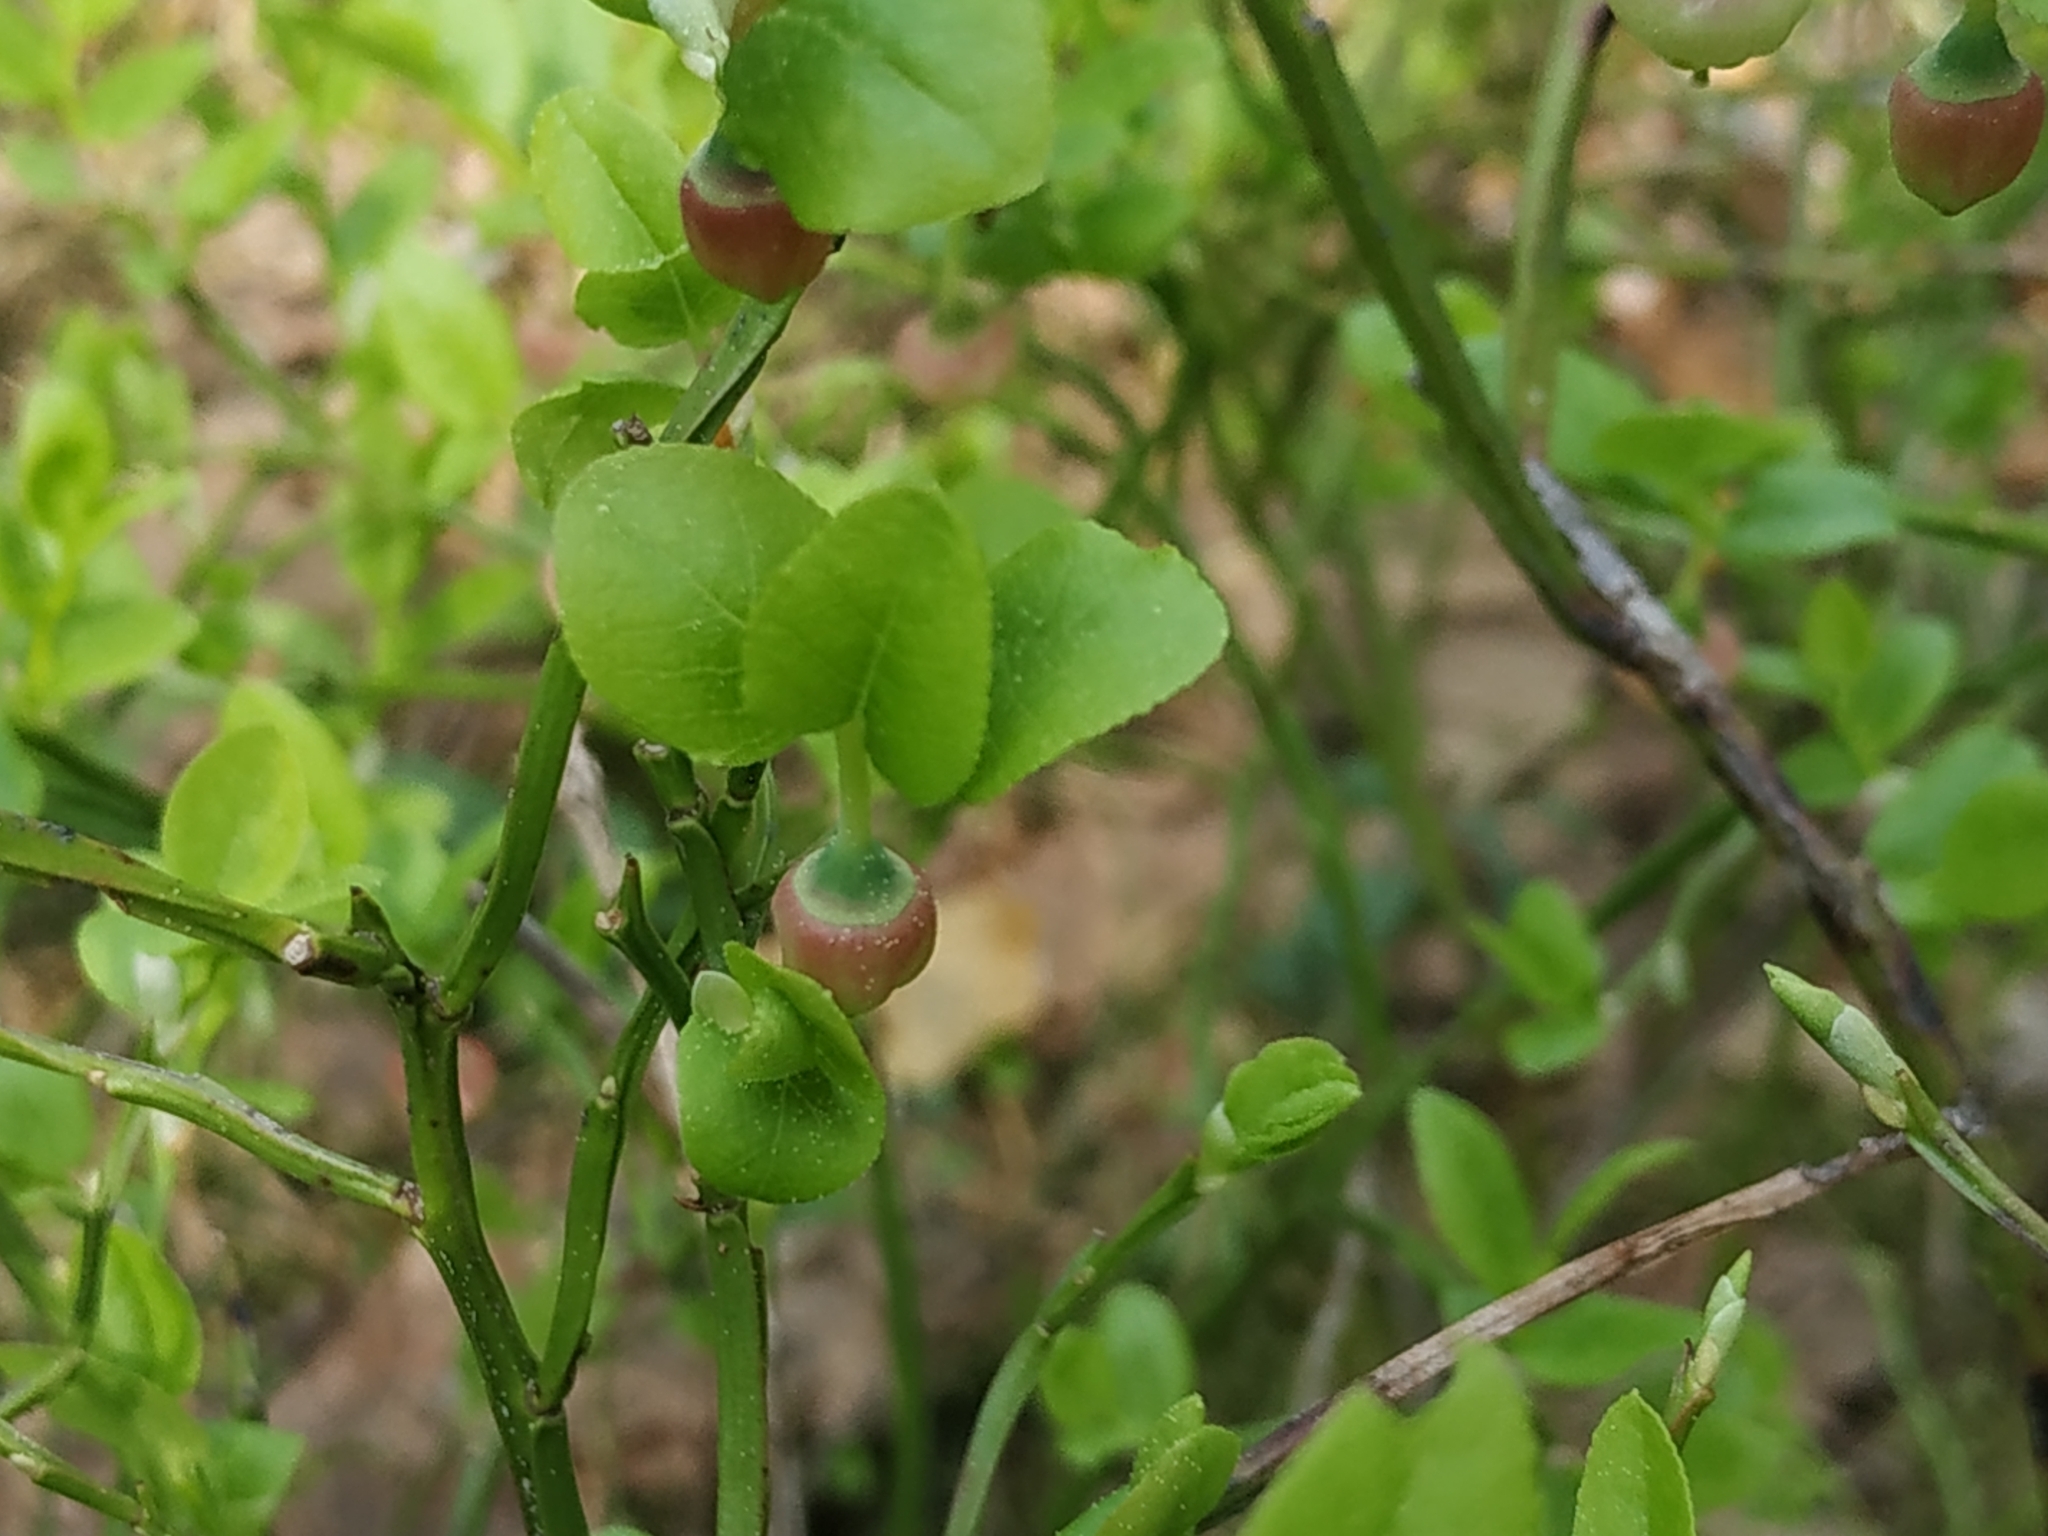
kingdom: Plantae
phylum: Tracheophyta
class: Magnoliopsida
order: Ericales
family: Ericaceae
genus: Vaccinium
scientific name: Vaccinium myrtillus
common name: Bilberry
